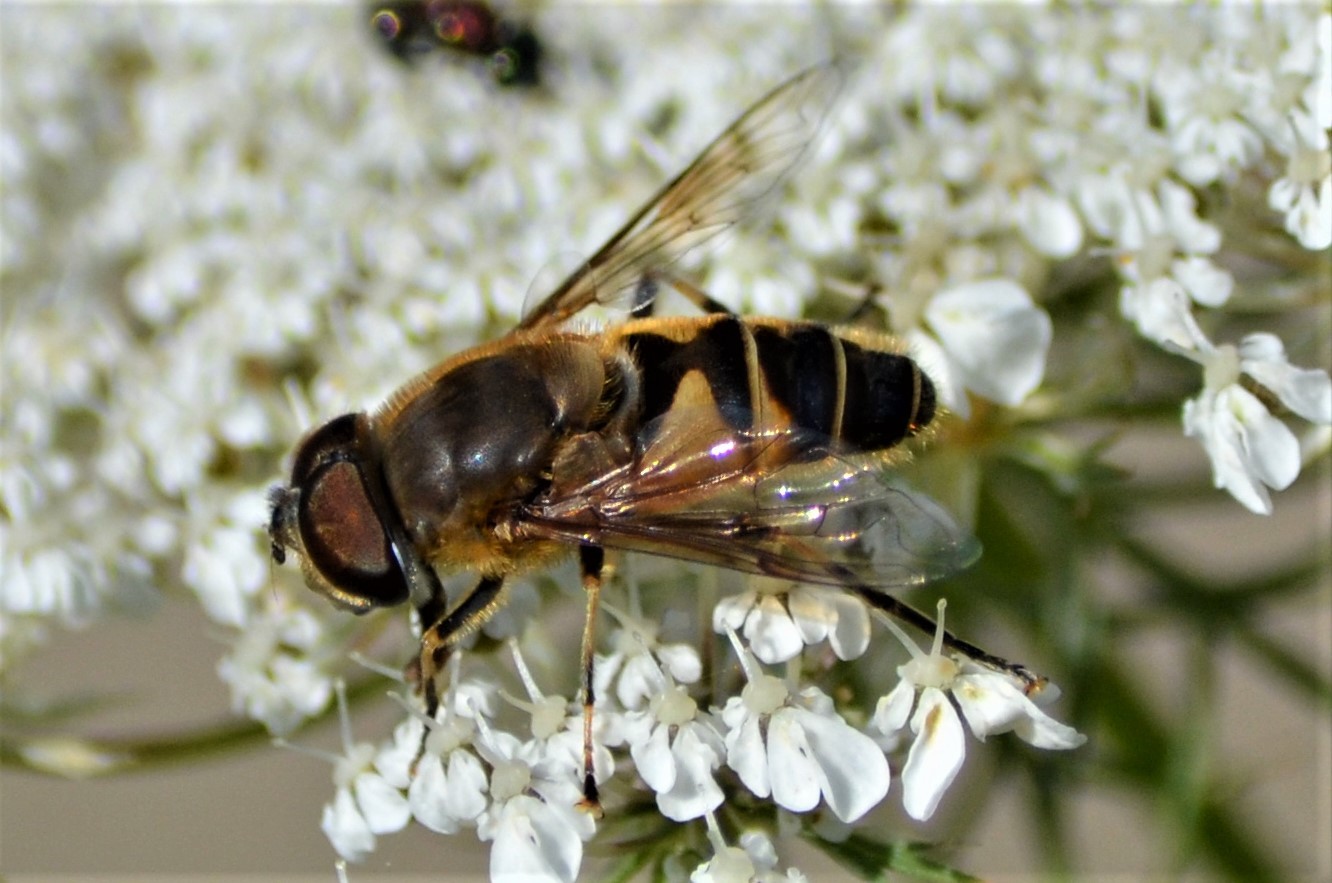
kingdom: Animalia
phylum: Arthropoda
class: Insecta
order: Diptera
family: Syrphidae
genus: Eristalis
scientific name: Eristalis pertinax
